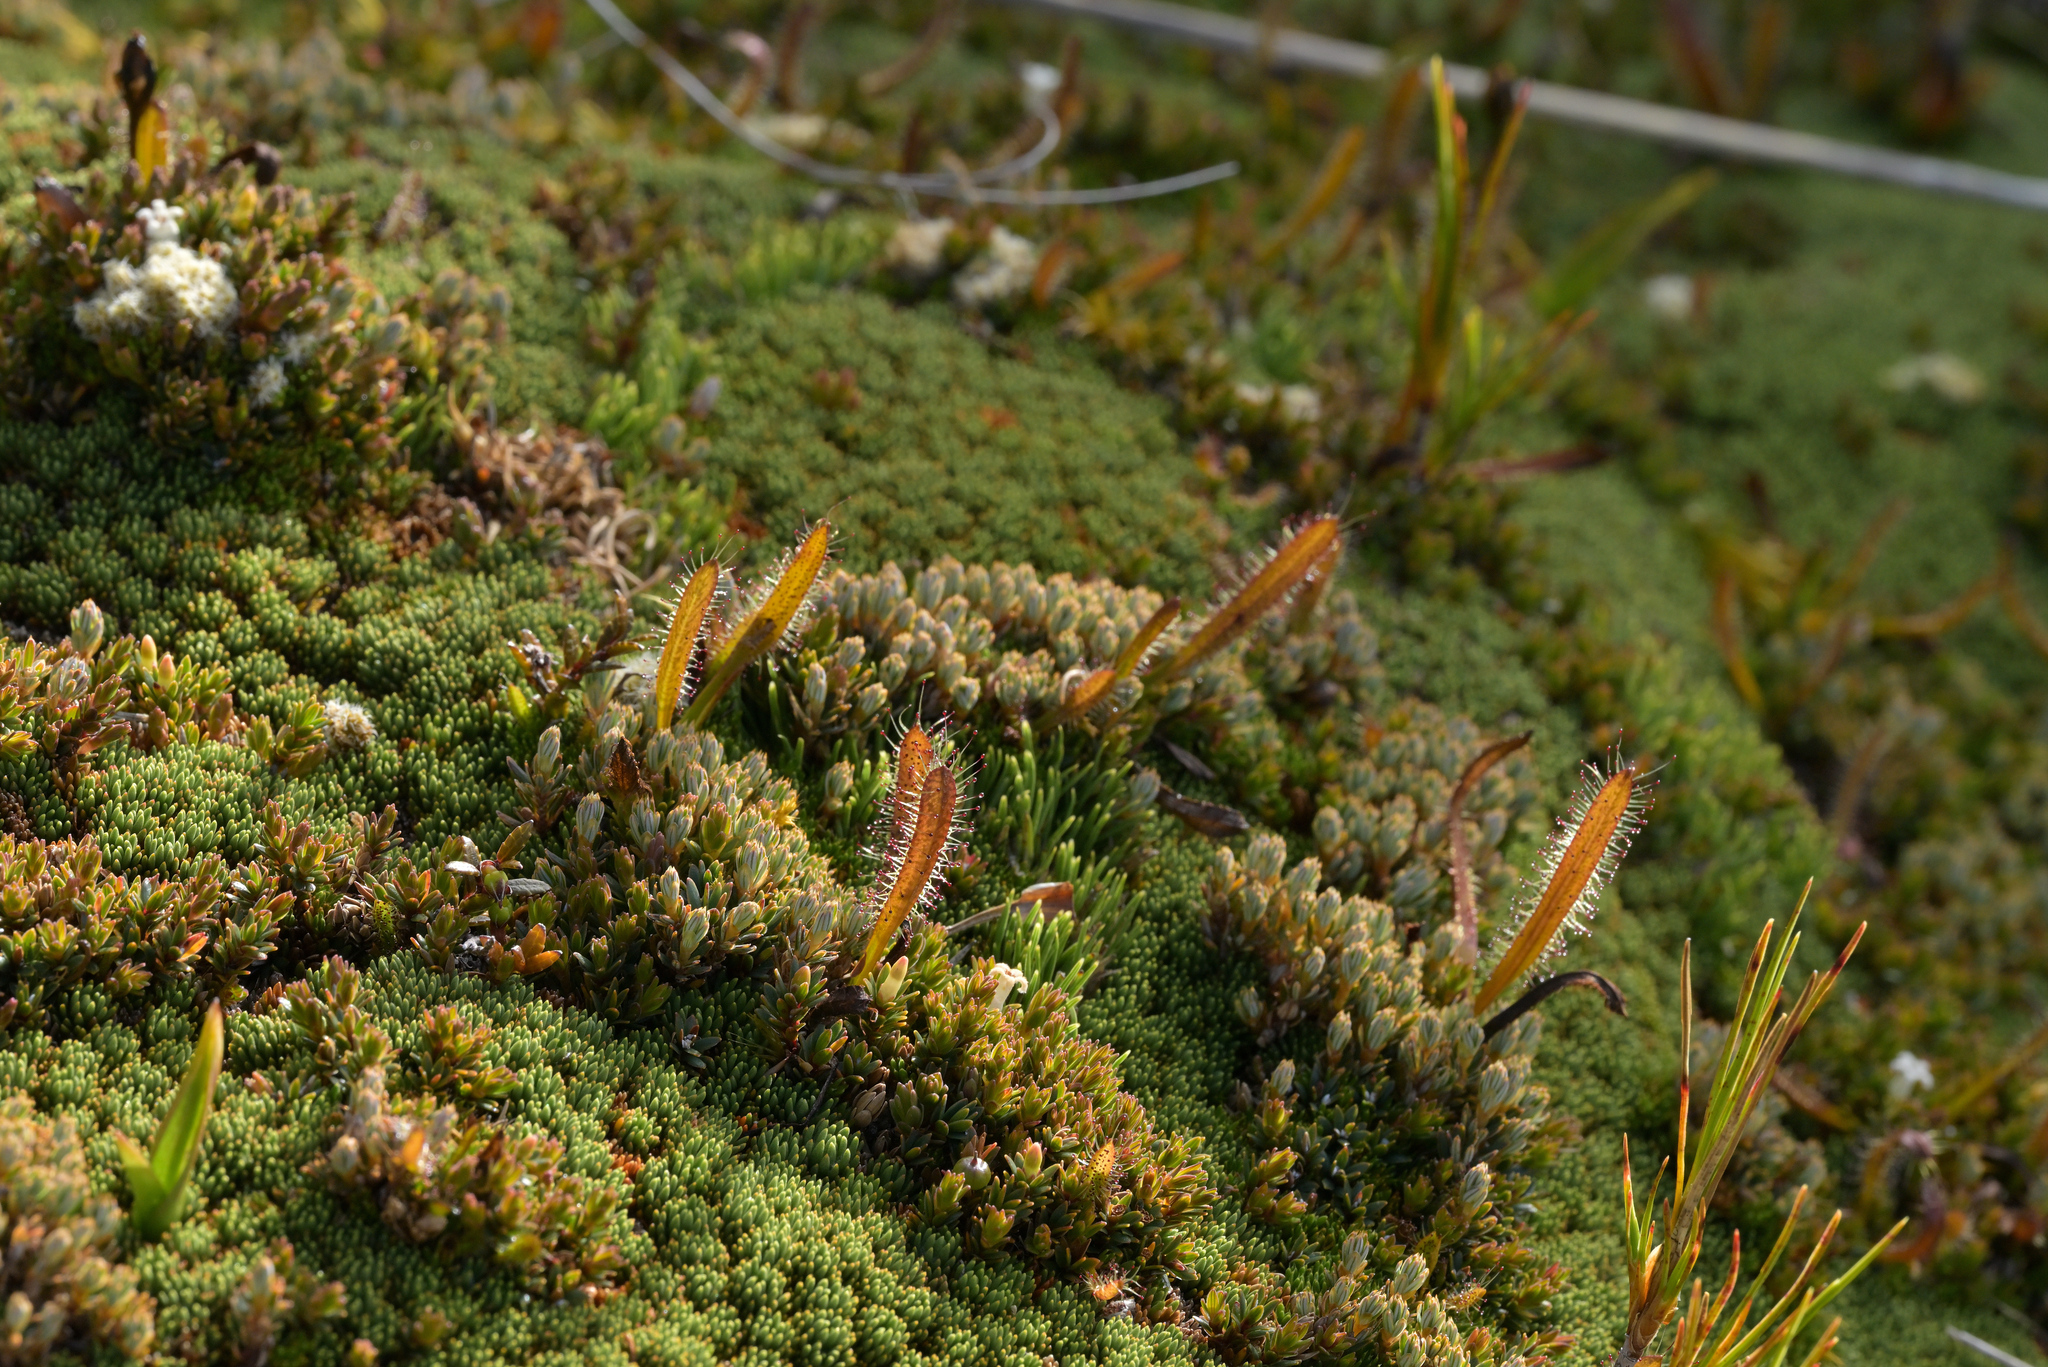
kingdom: Plantae
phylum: Tracheophyta
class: Magnoliopsida
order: Caryophyllales
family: Droseraceae
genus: Drosera
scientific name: Drosera arcturi
